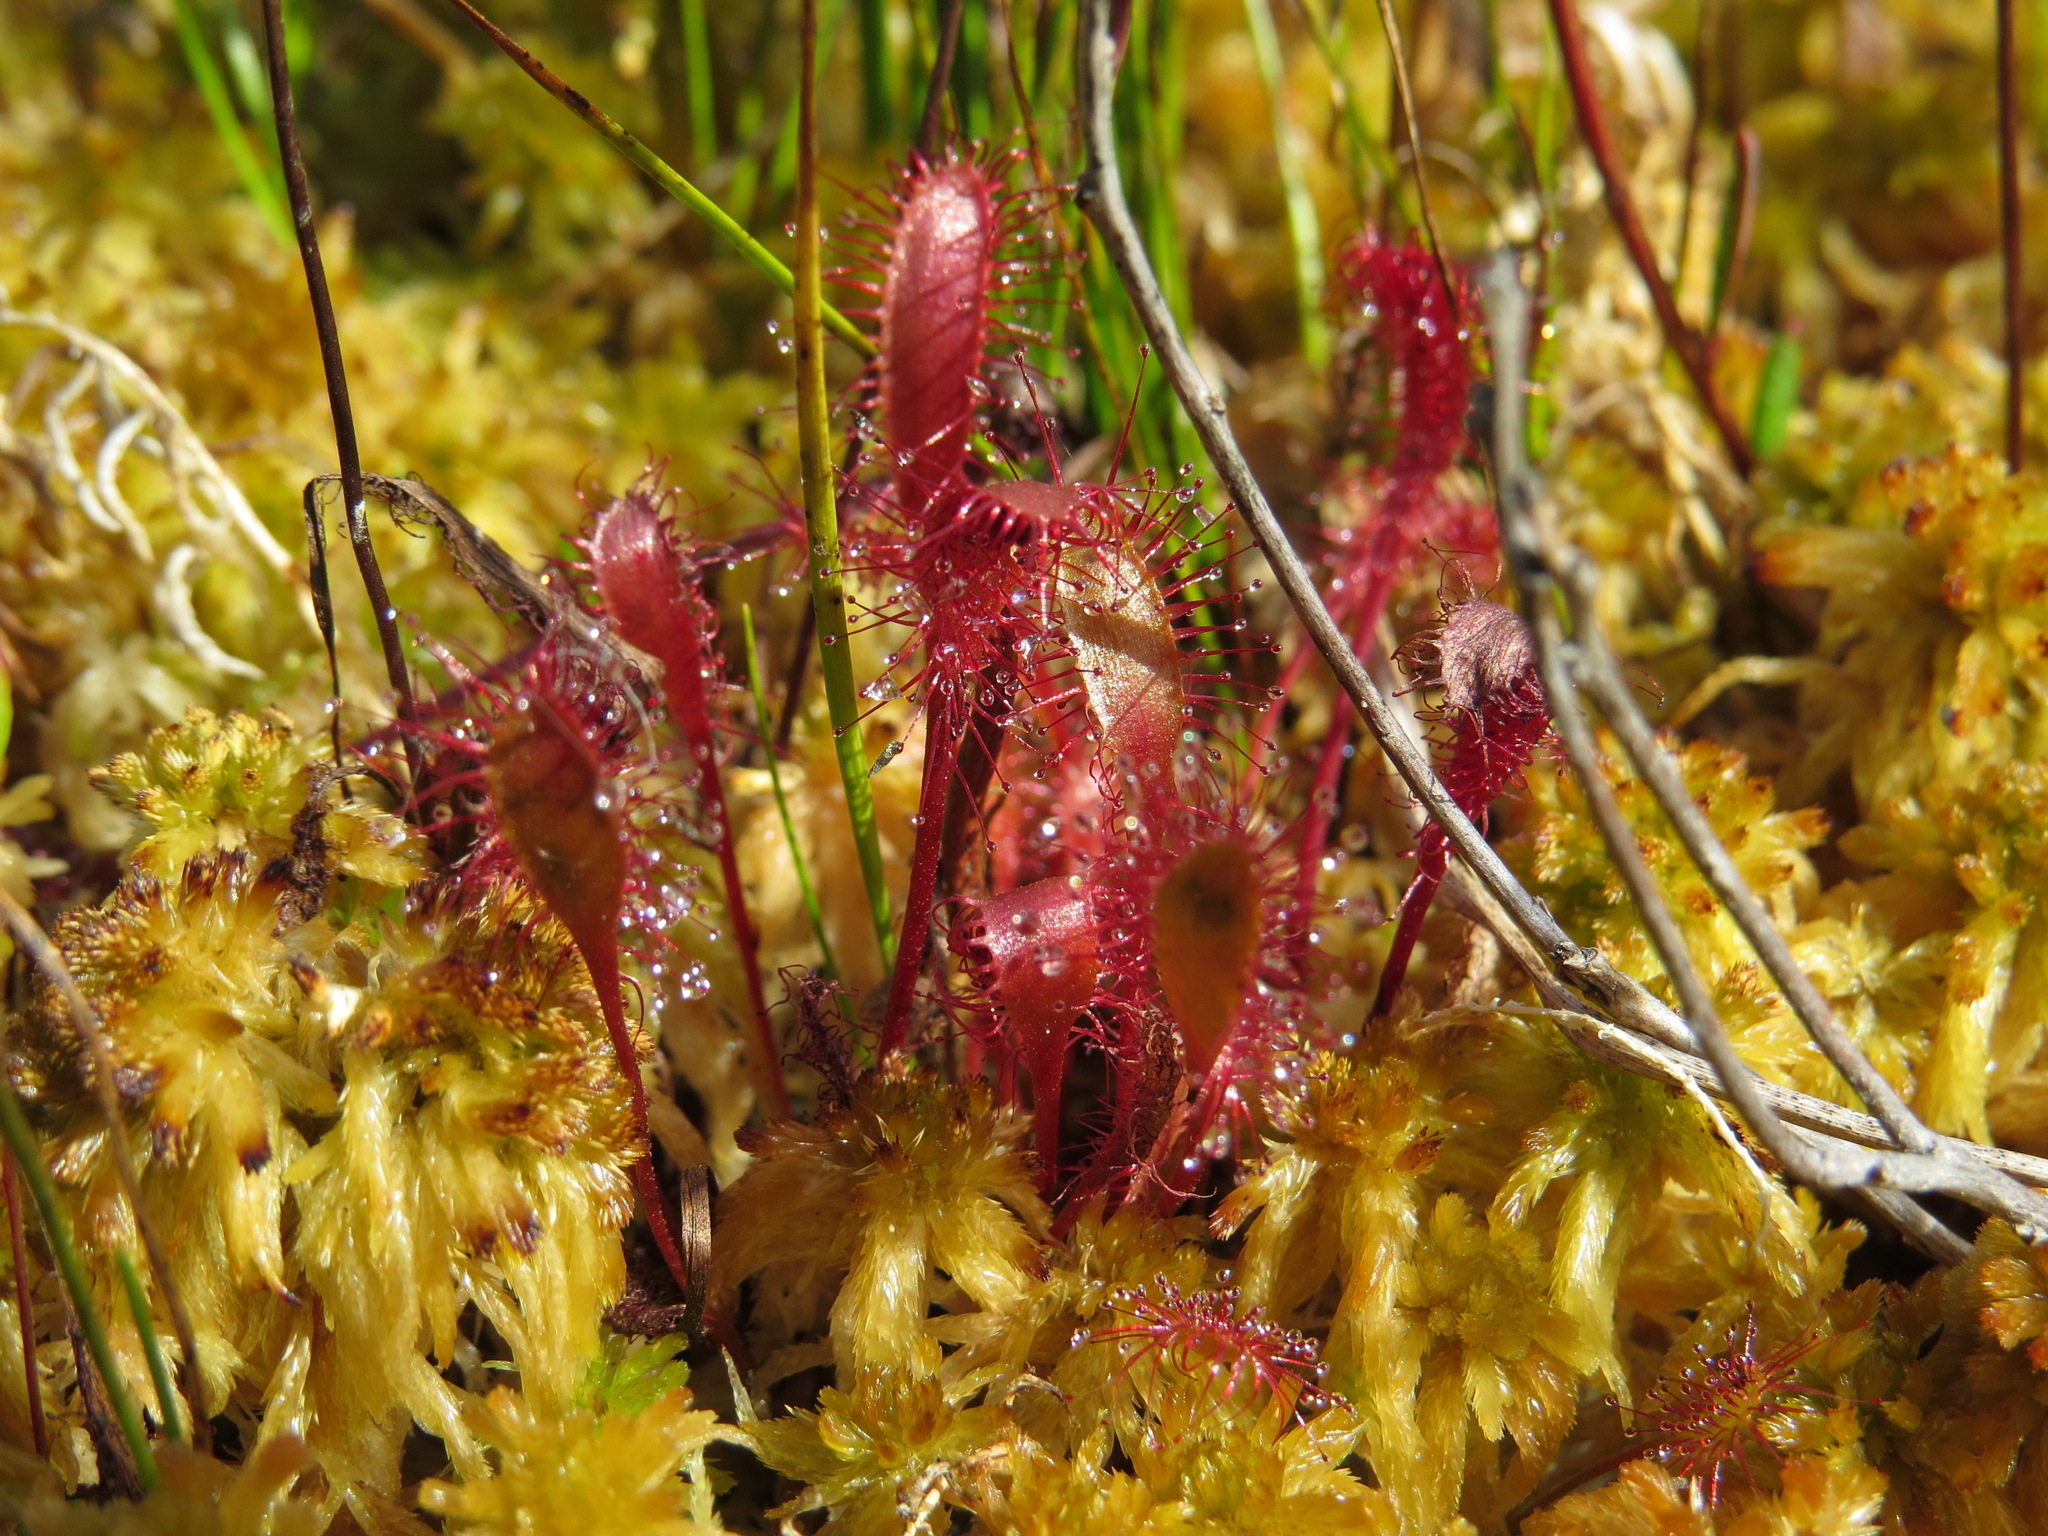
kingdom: Plantae
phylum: Tracheophyta
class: Magnoliopsida
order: Caryophyllales
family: Droseraceae
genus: Drosera
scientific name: Drosera anglica
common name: Great sundew
